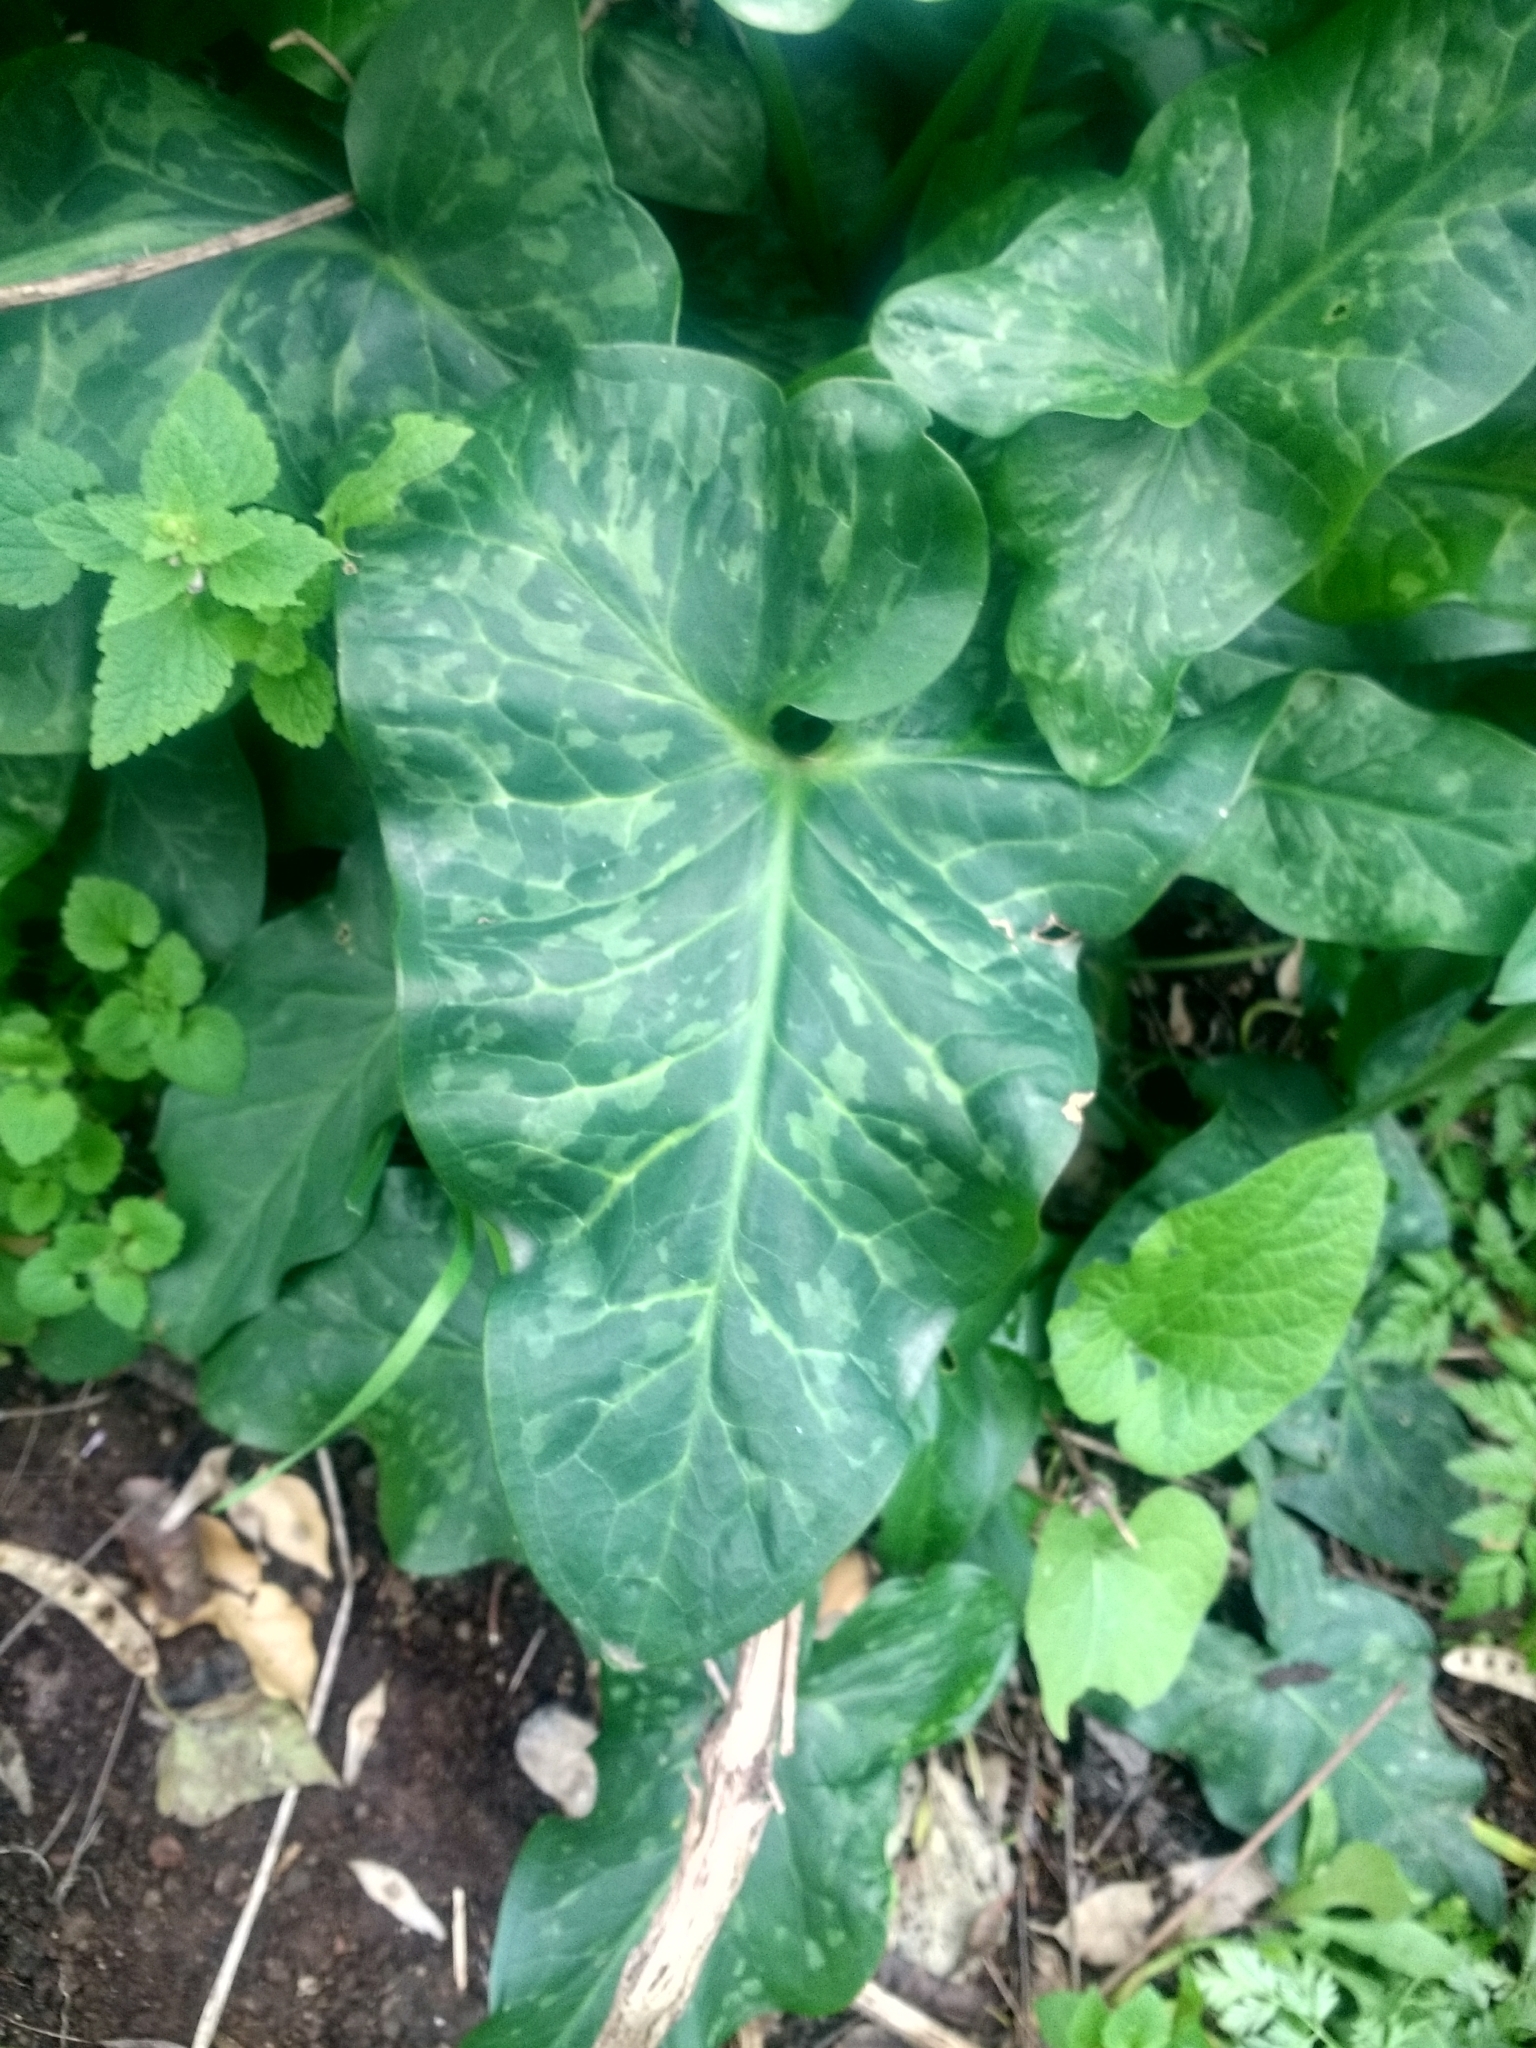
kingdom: Plantae
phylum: Tracheophyta
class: Liliopsida
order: Alismatales
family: Araceae
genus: Arum
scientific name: Arum italicum
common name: Italian lords-and-ladies
